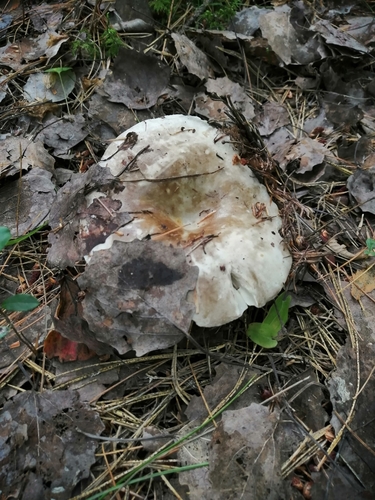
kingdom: Fungi
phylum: Basidiomycota
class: Agaricomycetes
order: Russulales
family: Russulaceae
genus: Russula
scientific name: Russula albonigra
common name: Menthol brittlegill
